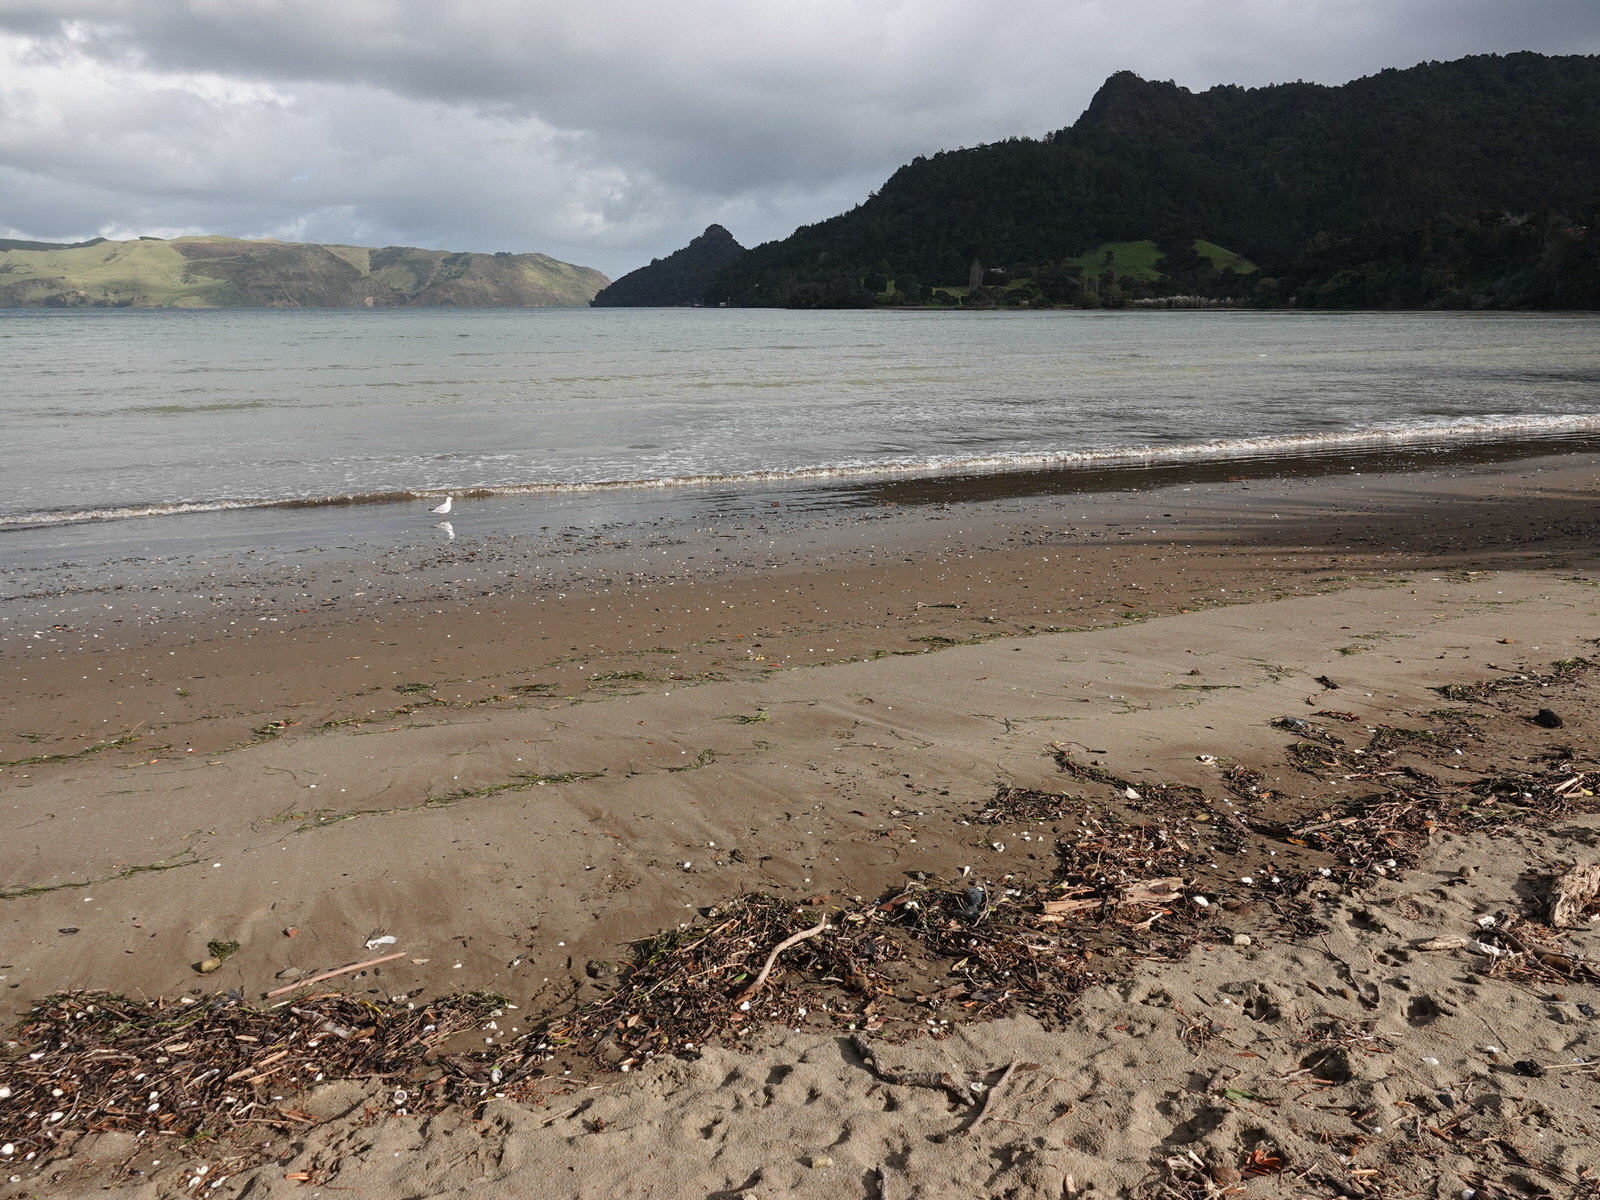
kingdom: Animalia
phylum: Cnidaria
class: Hydrozoa
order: Siphonophorae
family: Physaliidae
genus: Physalia
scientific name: Physalia
